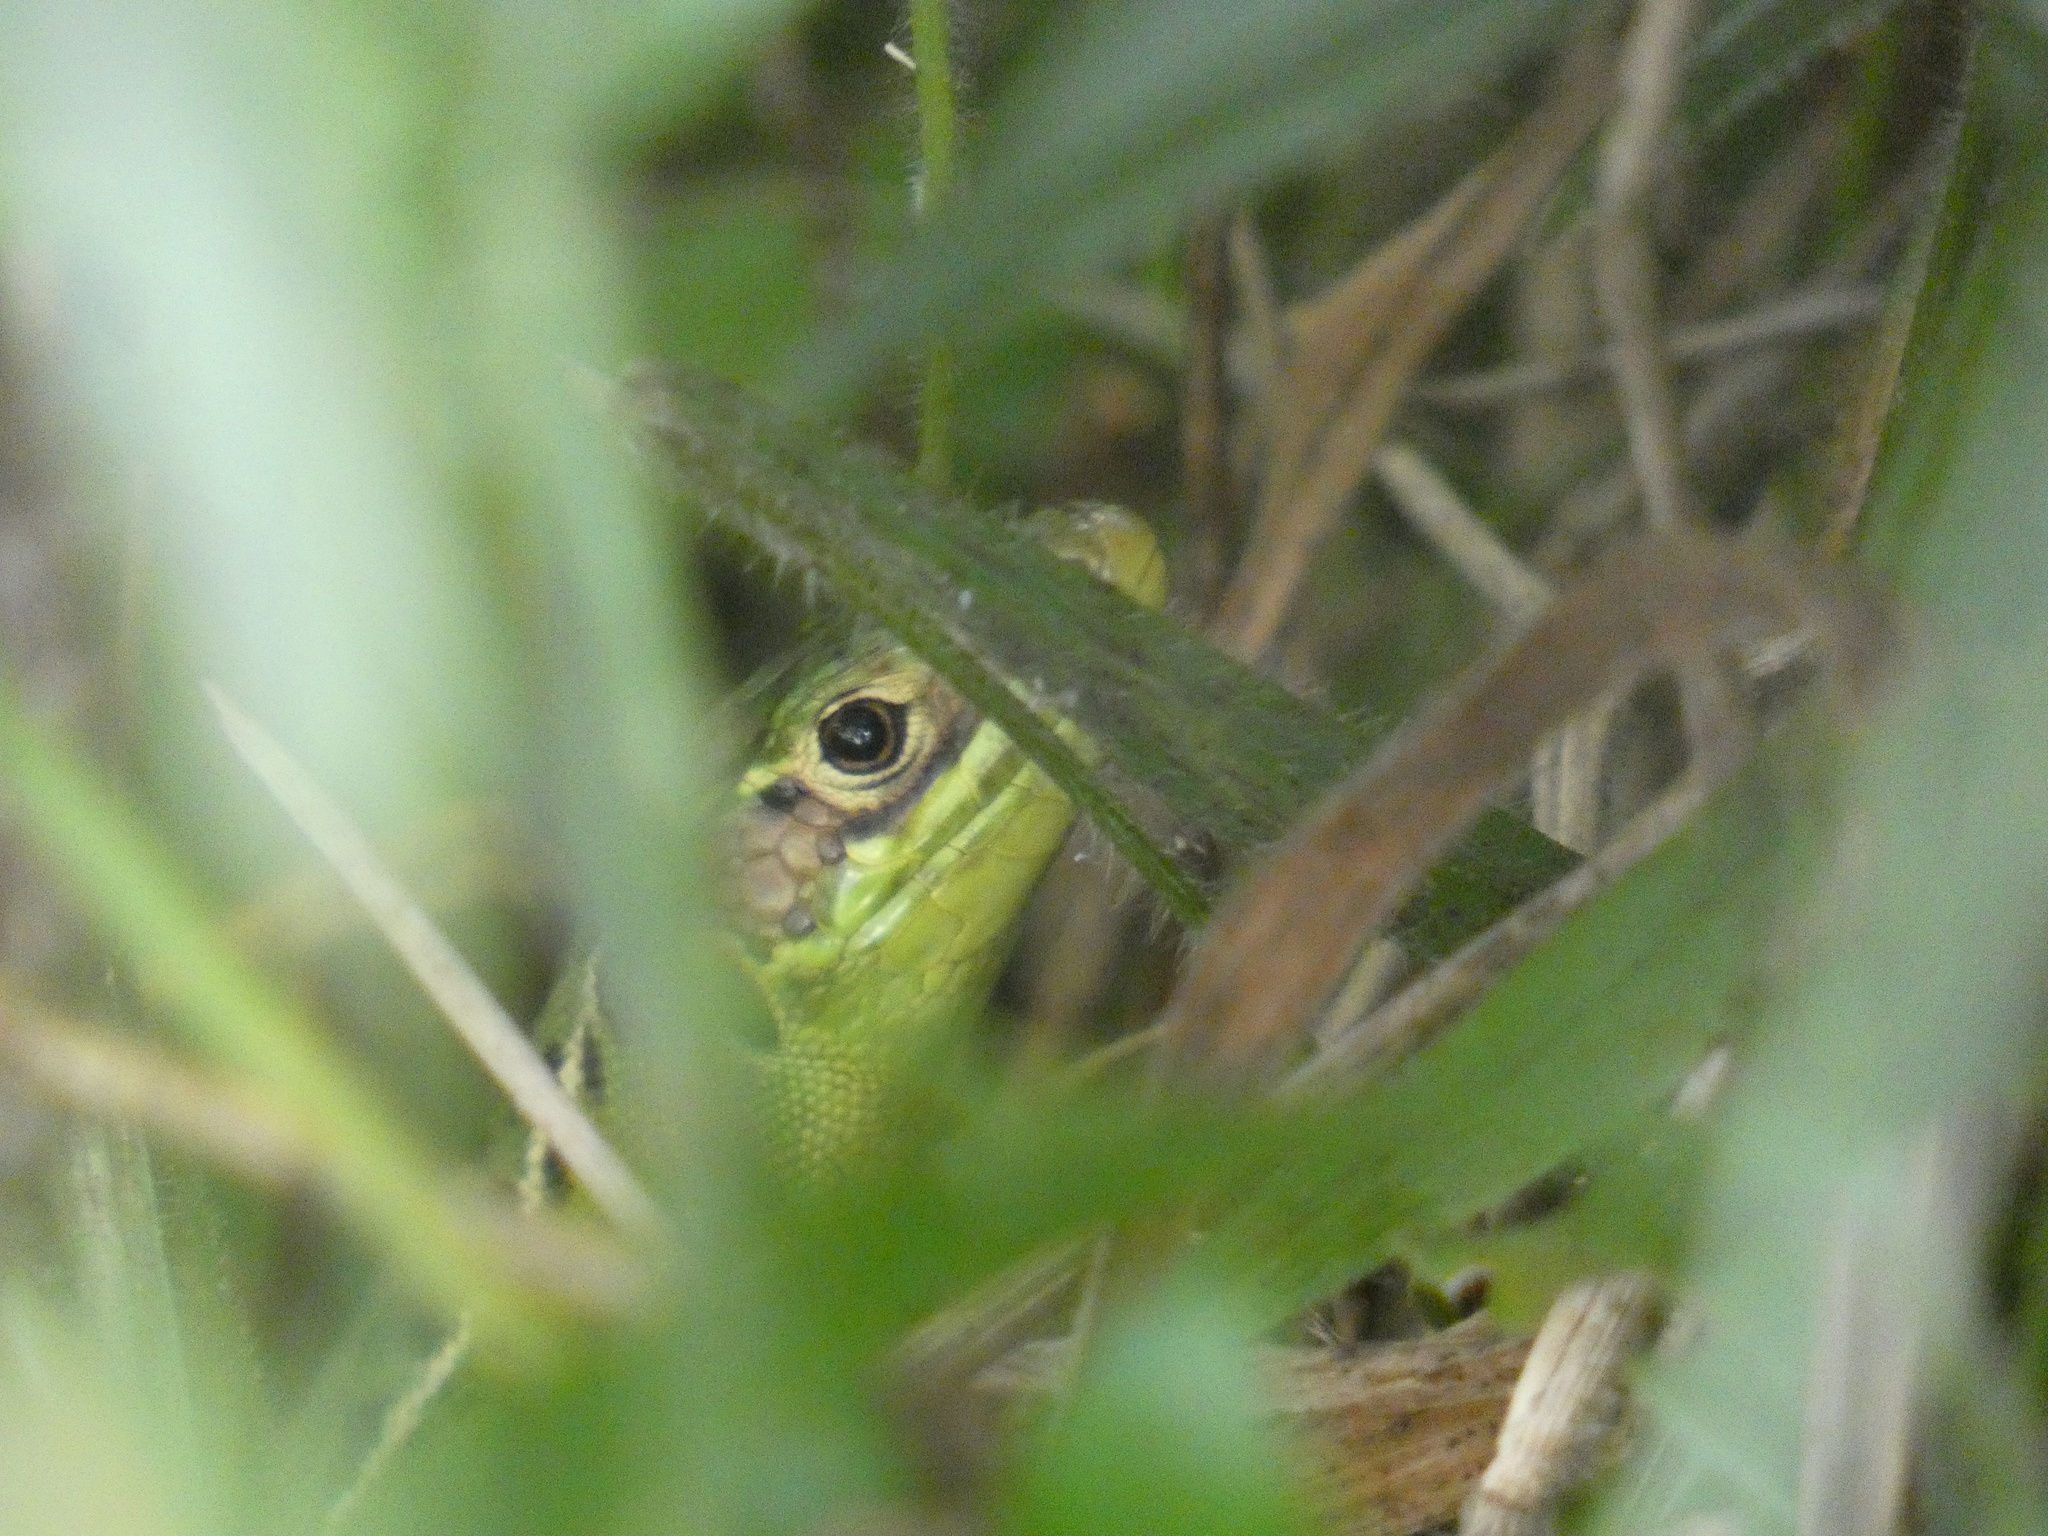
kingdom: Animalia
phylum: Chordata
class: Squamata
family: Lacertidae
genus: Lacerta
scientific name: Lacerta bilineata
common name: Western green lizard
